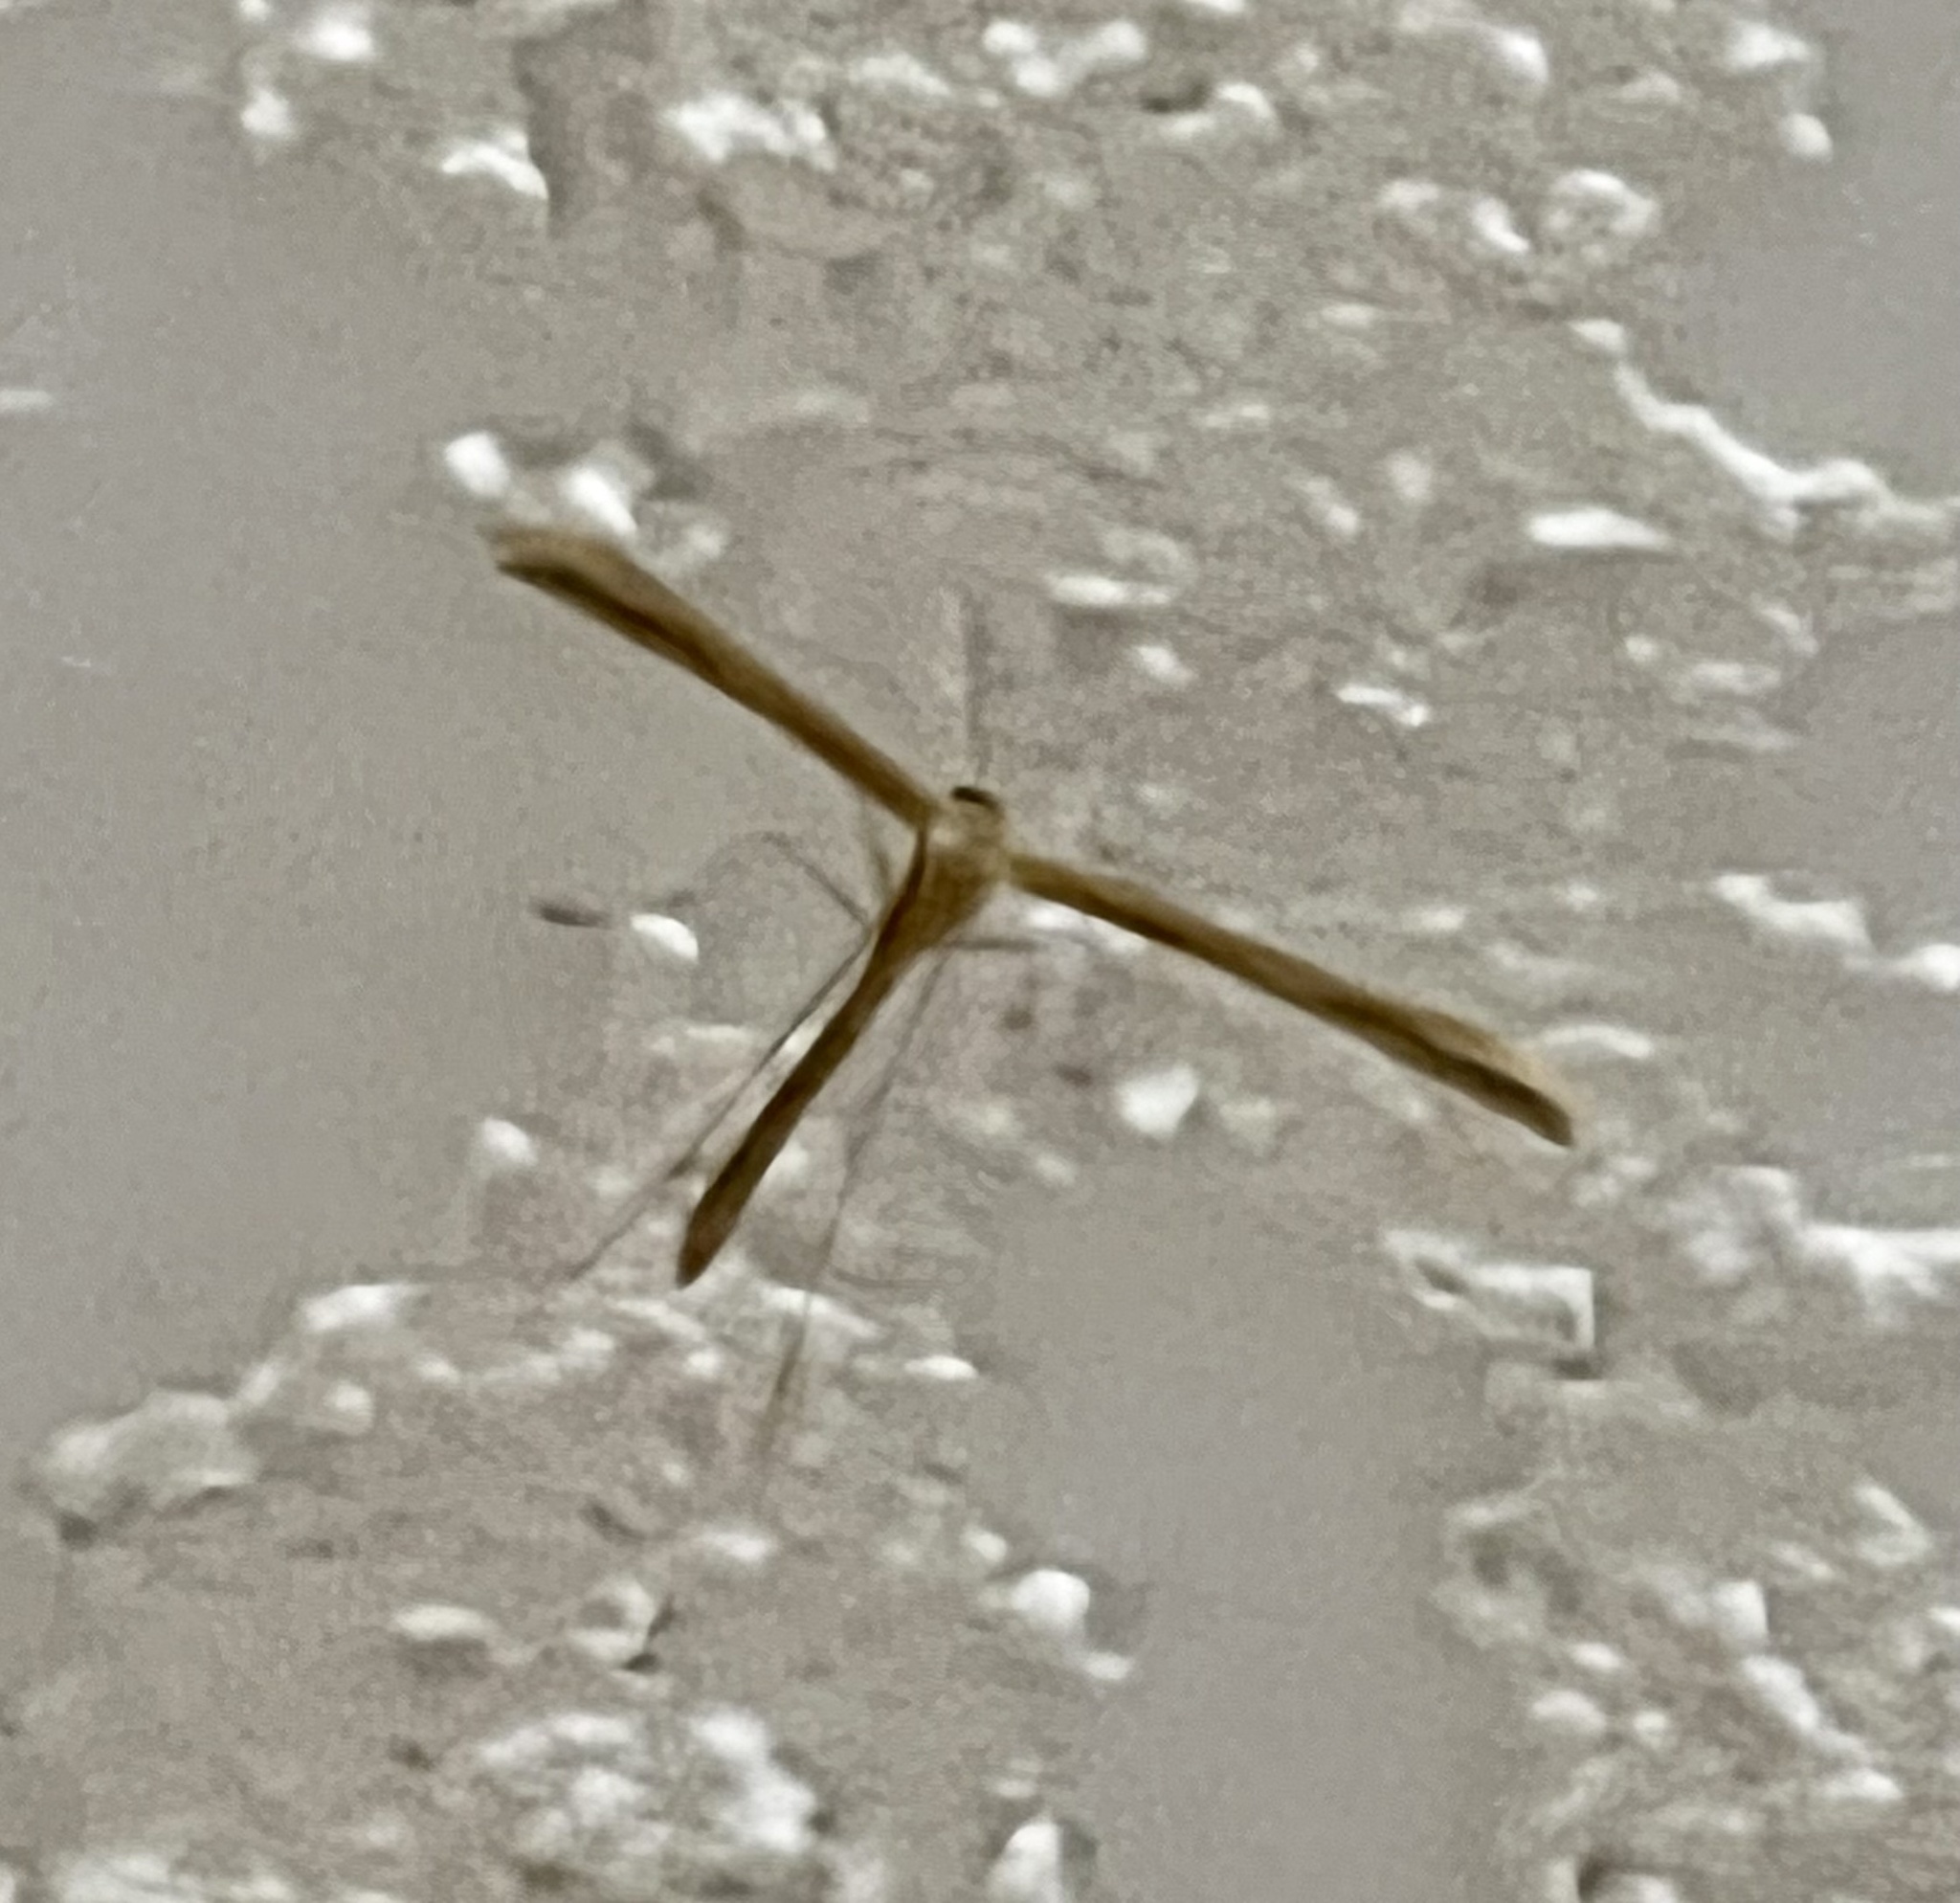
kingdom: Animalia
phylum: Arthropoda
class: Insecta
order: Lepidoptera
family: Pterophoridae
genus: Emmelina
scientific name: Emmelina monodactyla
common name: Common plume
